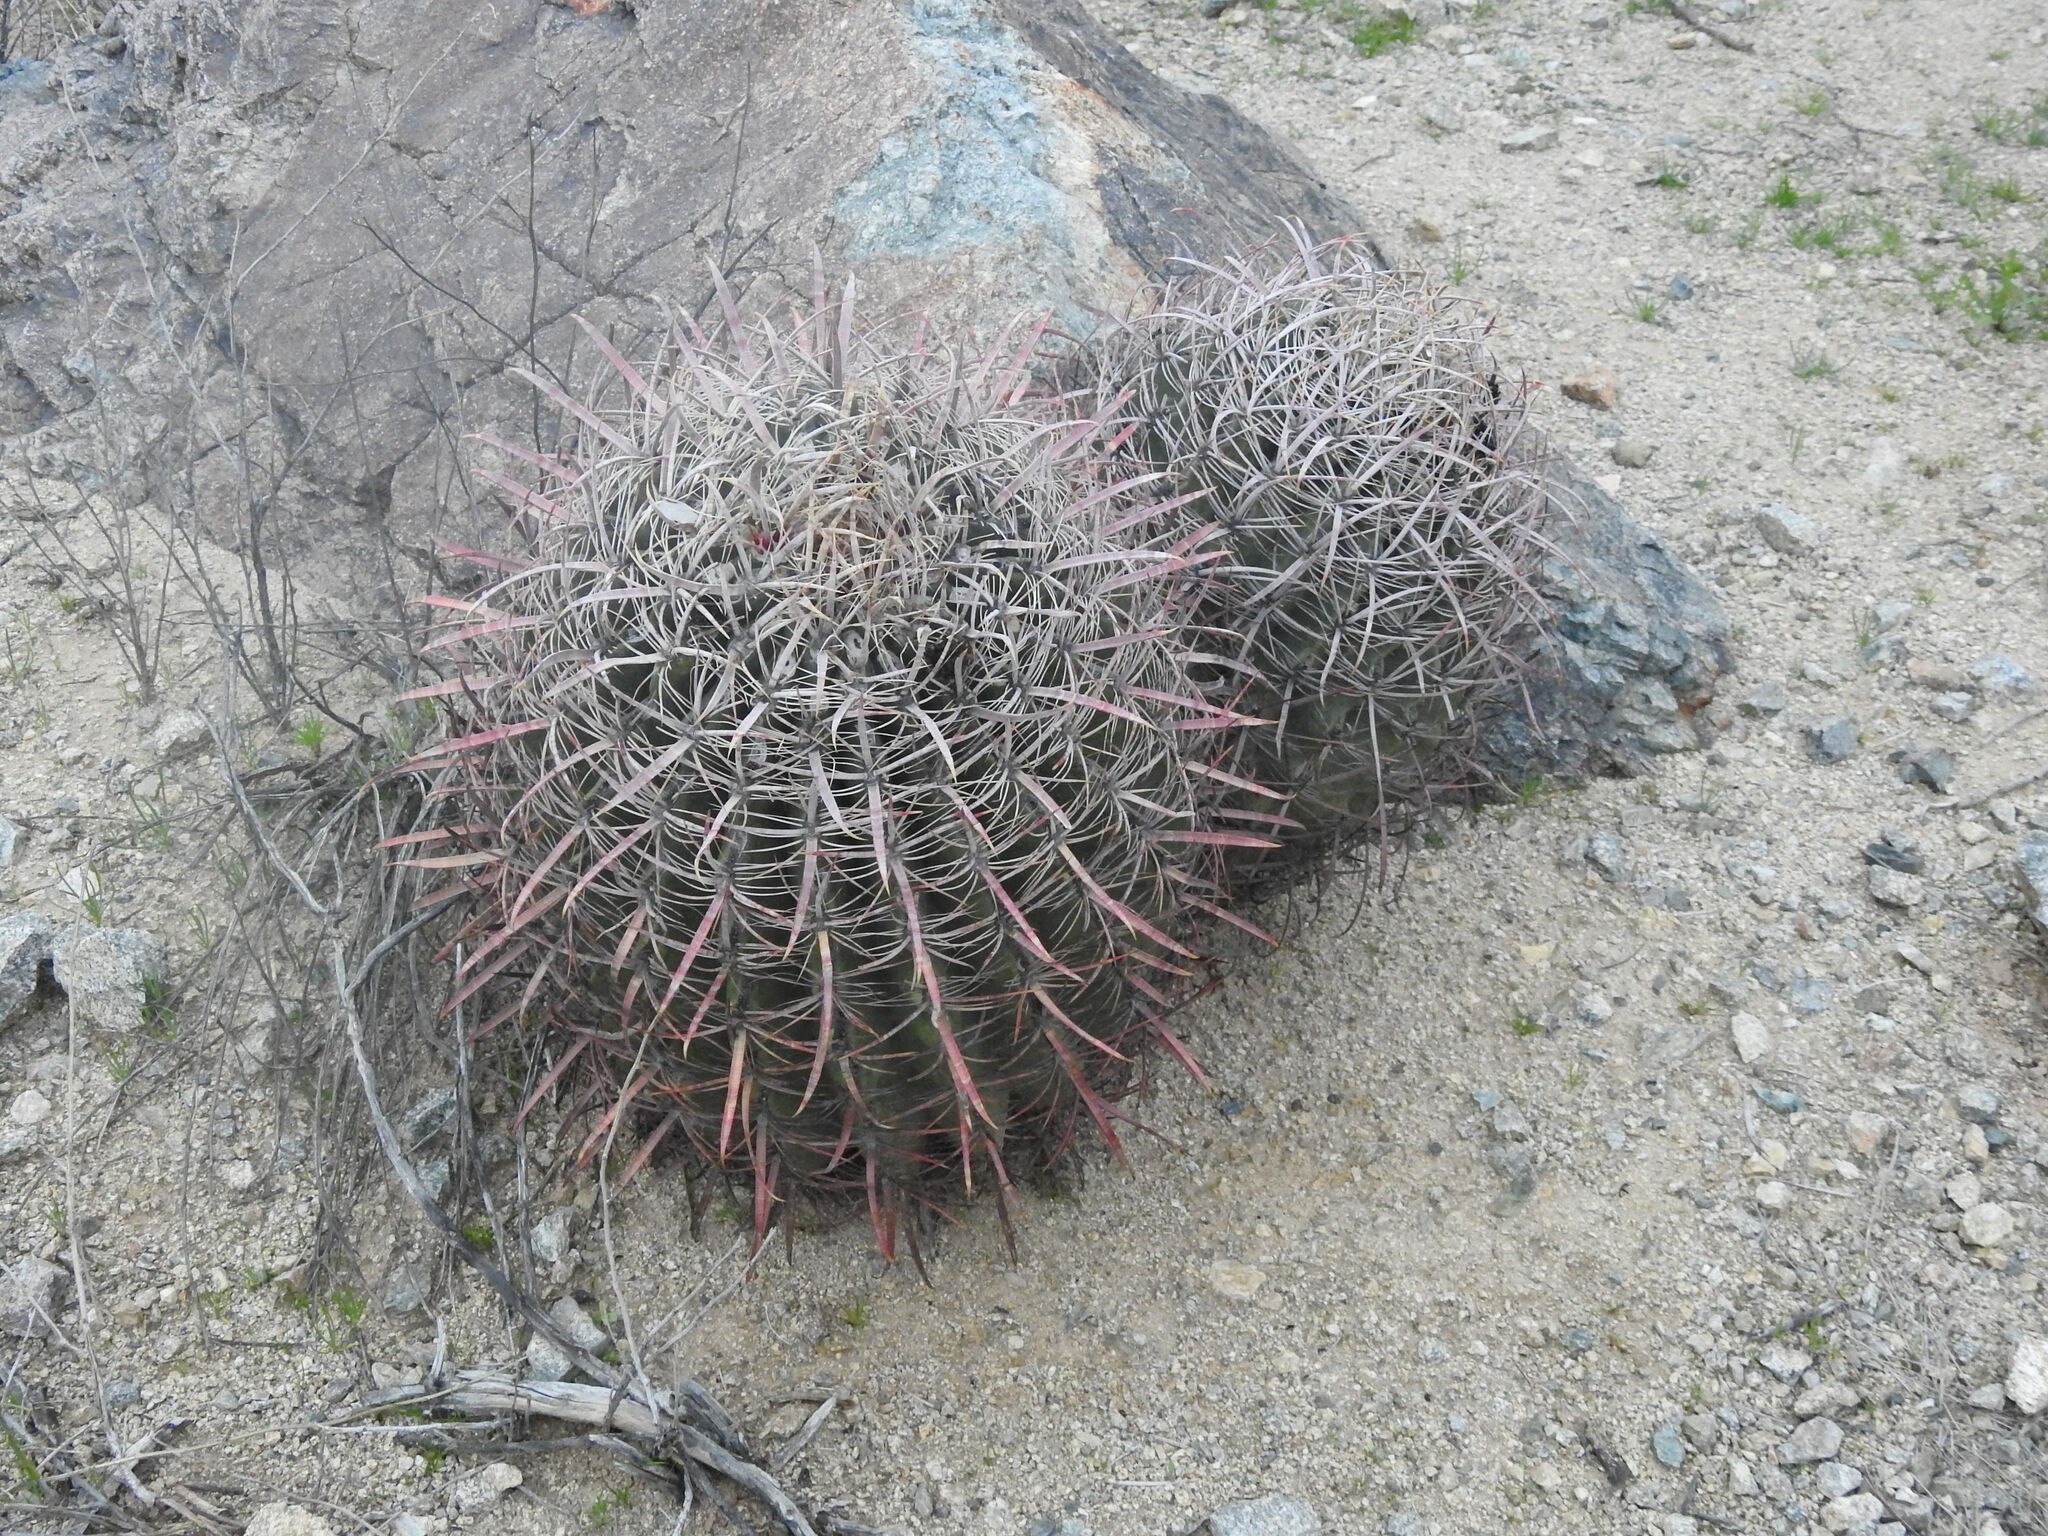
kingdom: Plantae
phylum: Tracheophyta
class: Magnoliopsida
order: Caryophyllales
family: Cactaceae
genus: Ferocactus
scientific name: Ferocactus cylindraceus
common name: California barrel cactus
